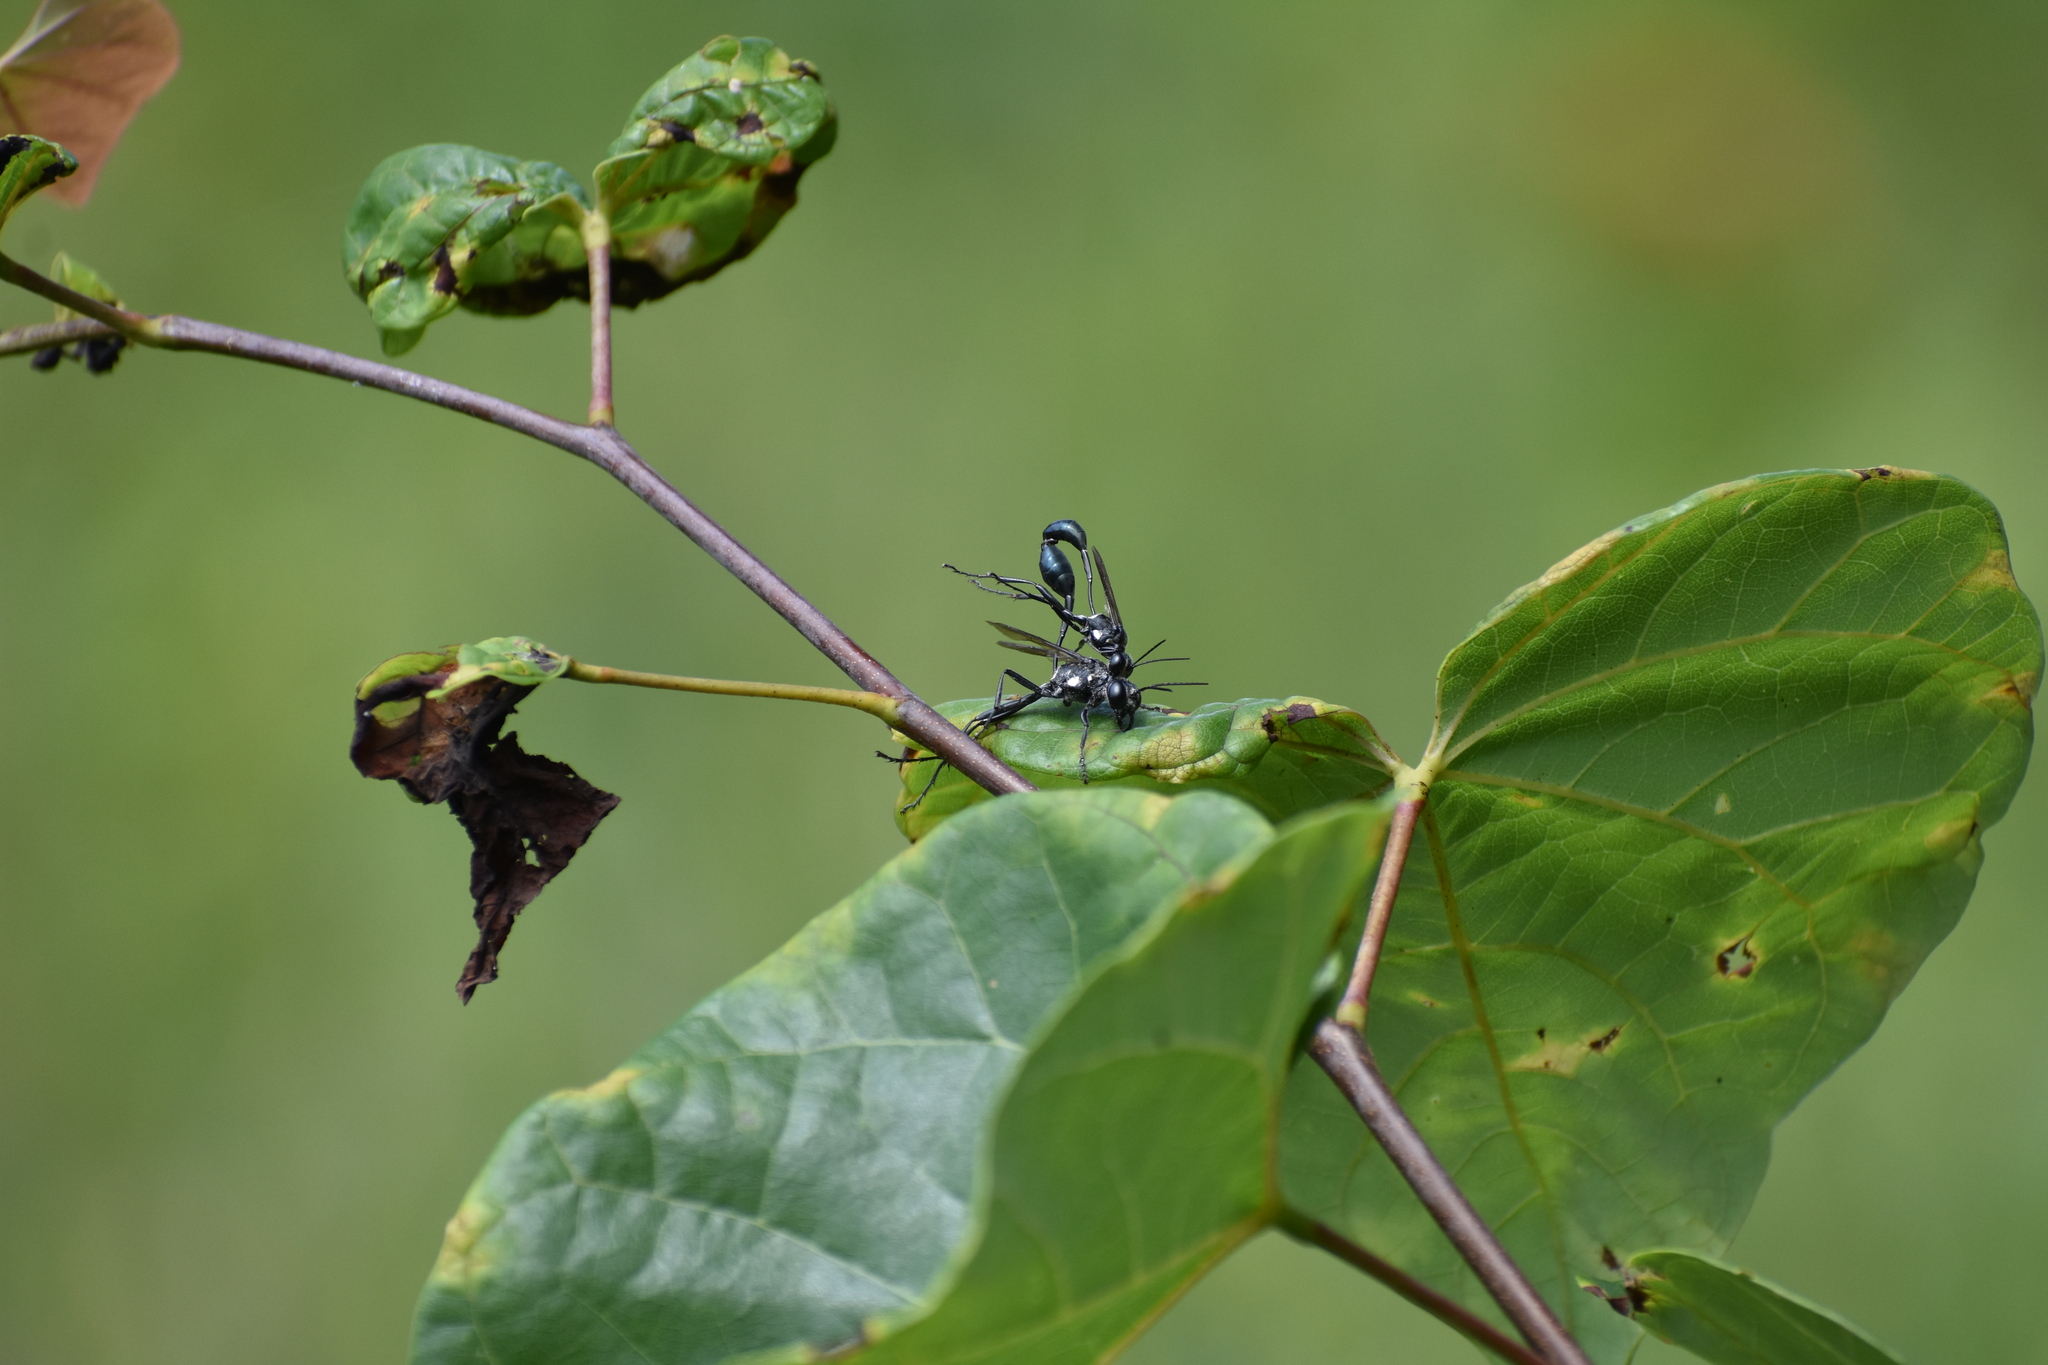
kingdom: Animalia
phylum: Arthropoda
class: Insecta
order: Hymenoptera
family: Sphecidae
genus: Eremnophila
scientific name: Eremnophila aureonotata
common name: Gold-marked thread-waisted wasp
